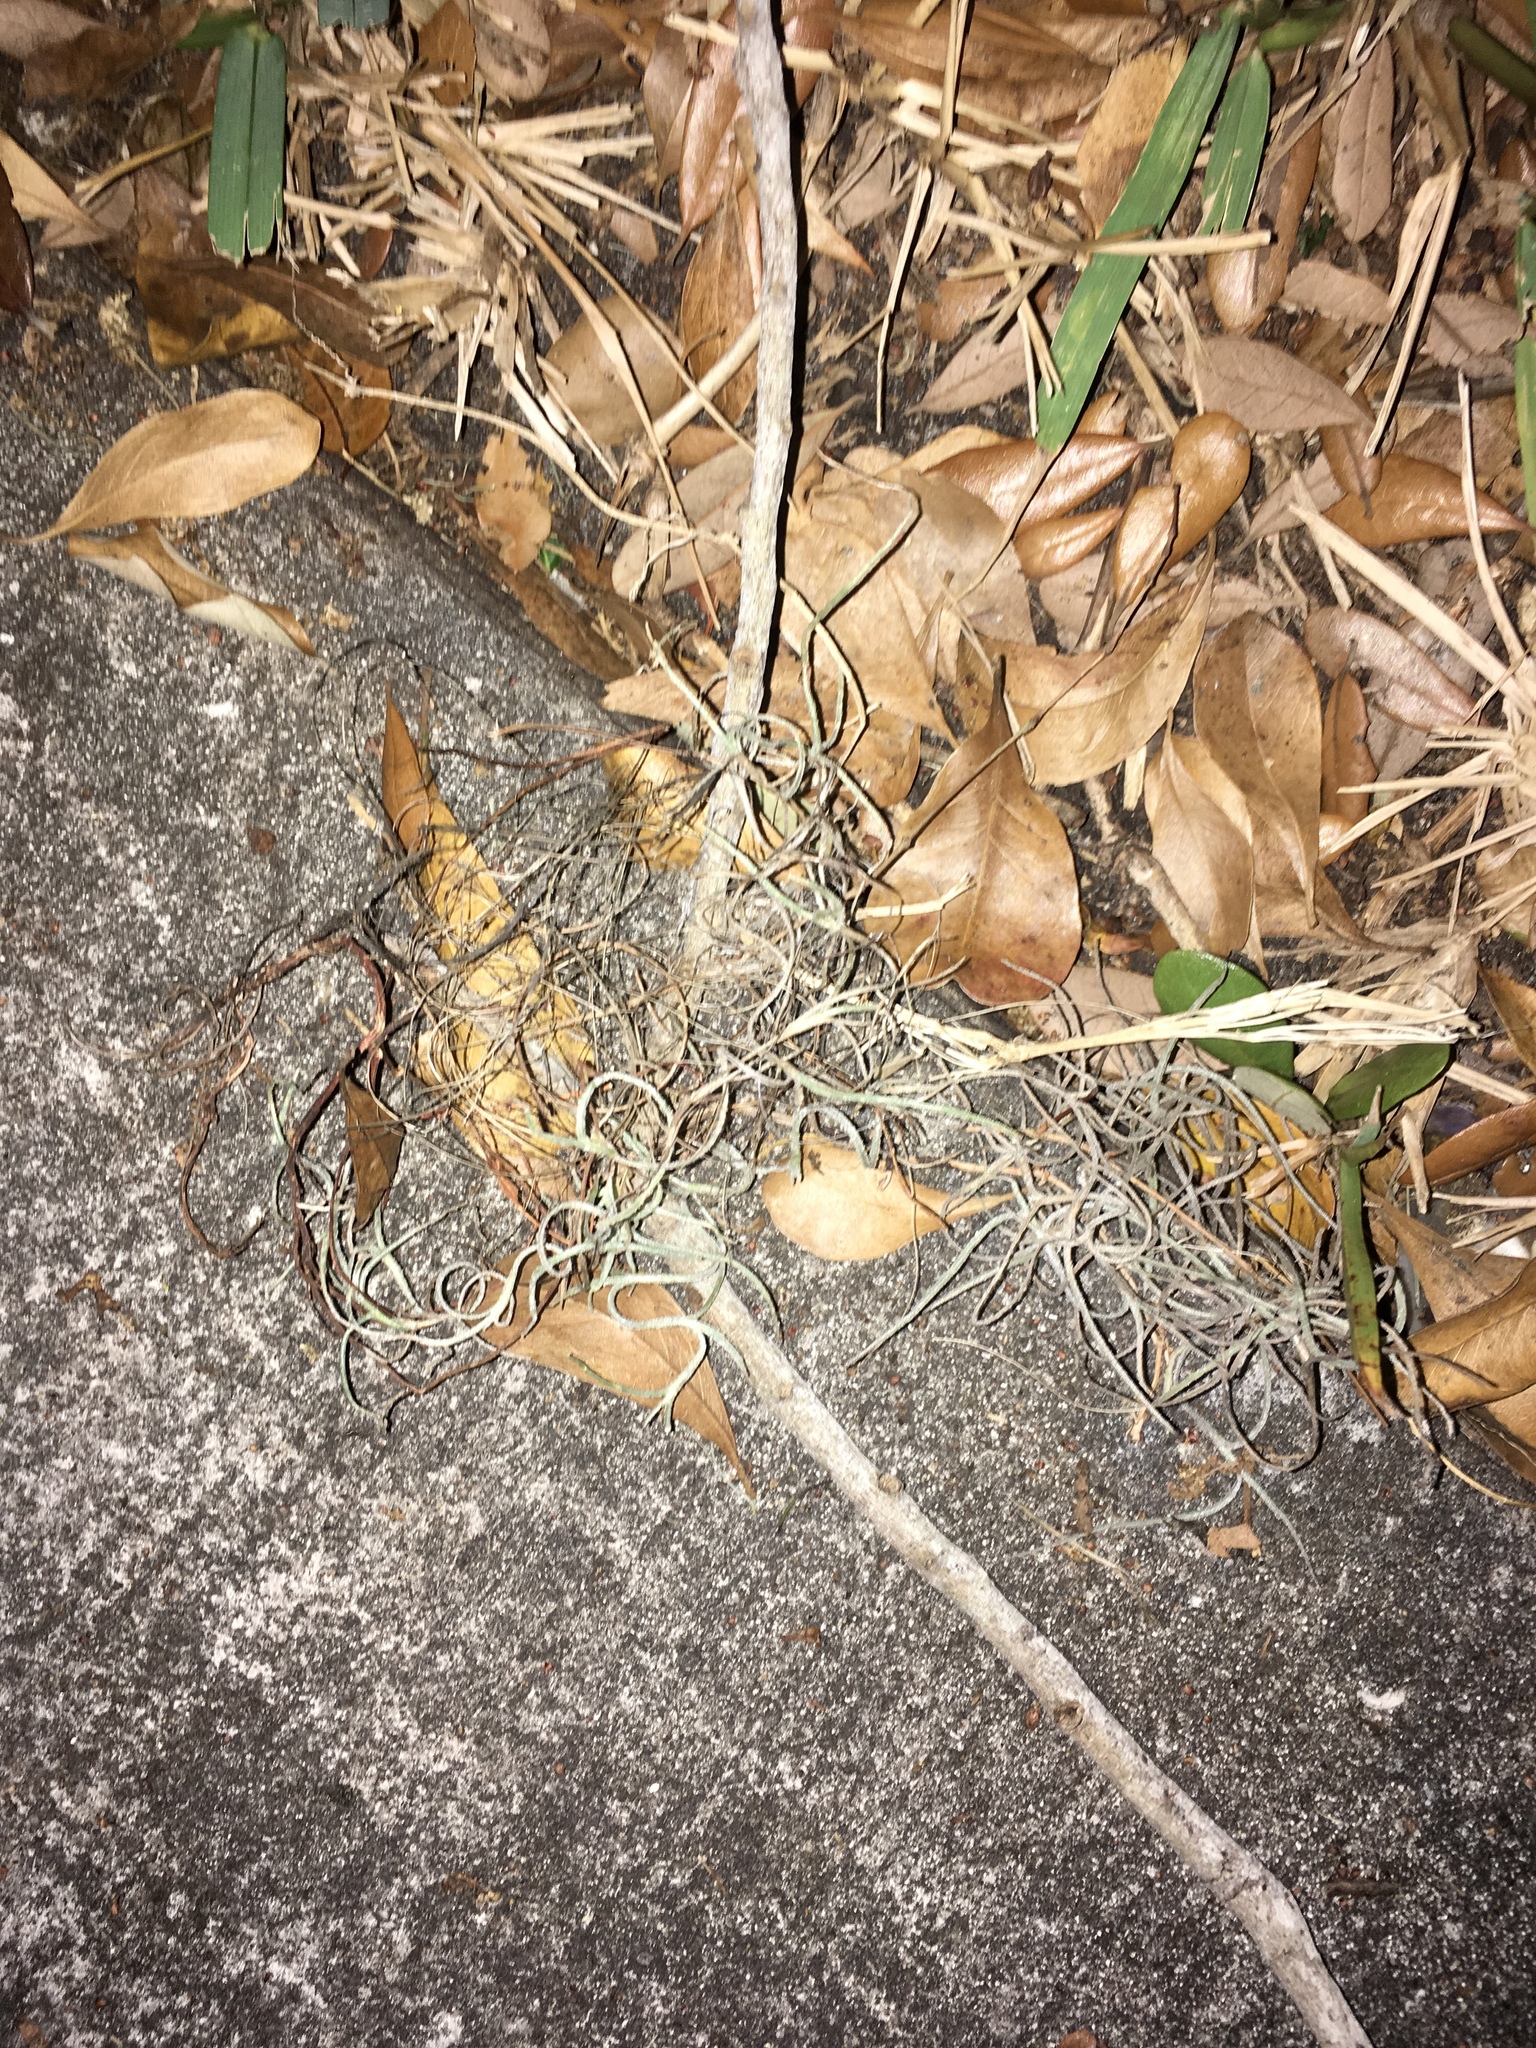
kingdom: Plantae
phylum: Tracheophyta
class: Liliopsida
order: Poales
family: Bromeliaceae
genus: Tillandsia
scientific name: Tillandsia usneoides
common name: Spanish moss
